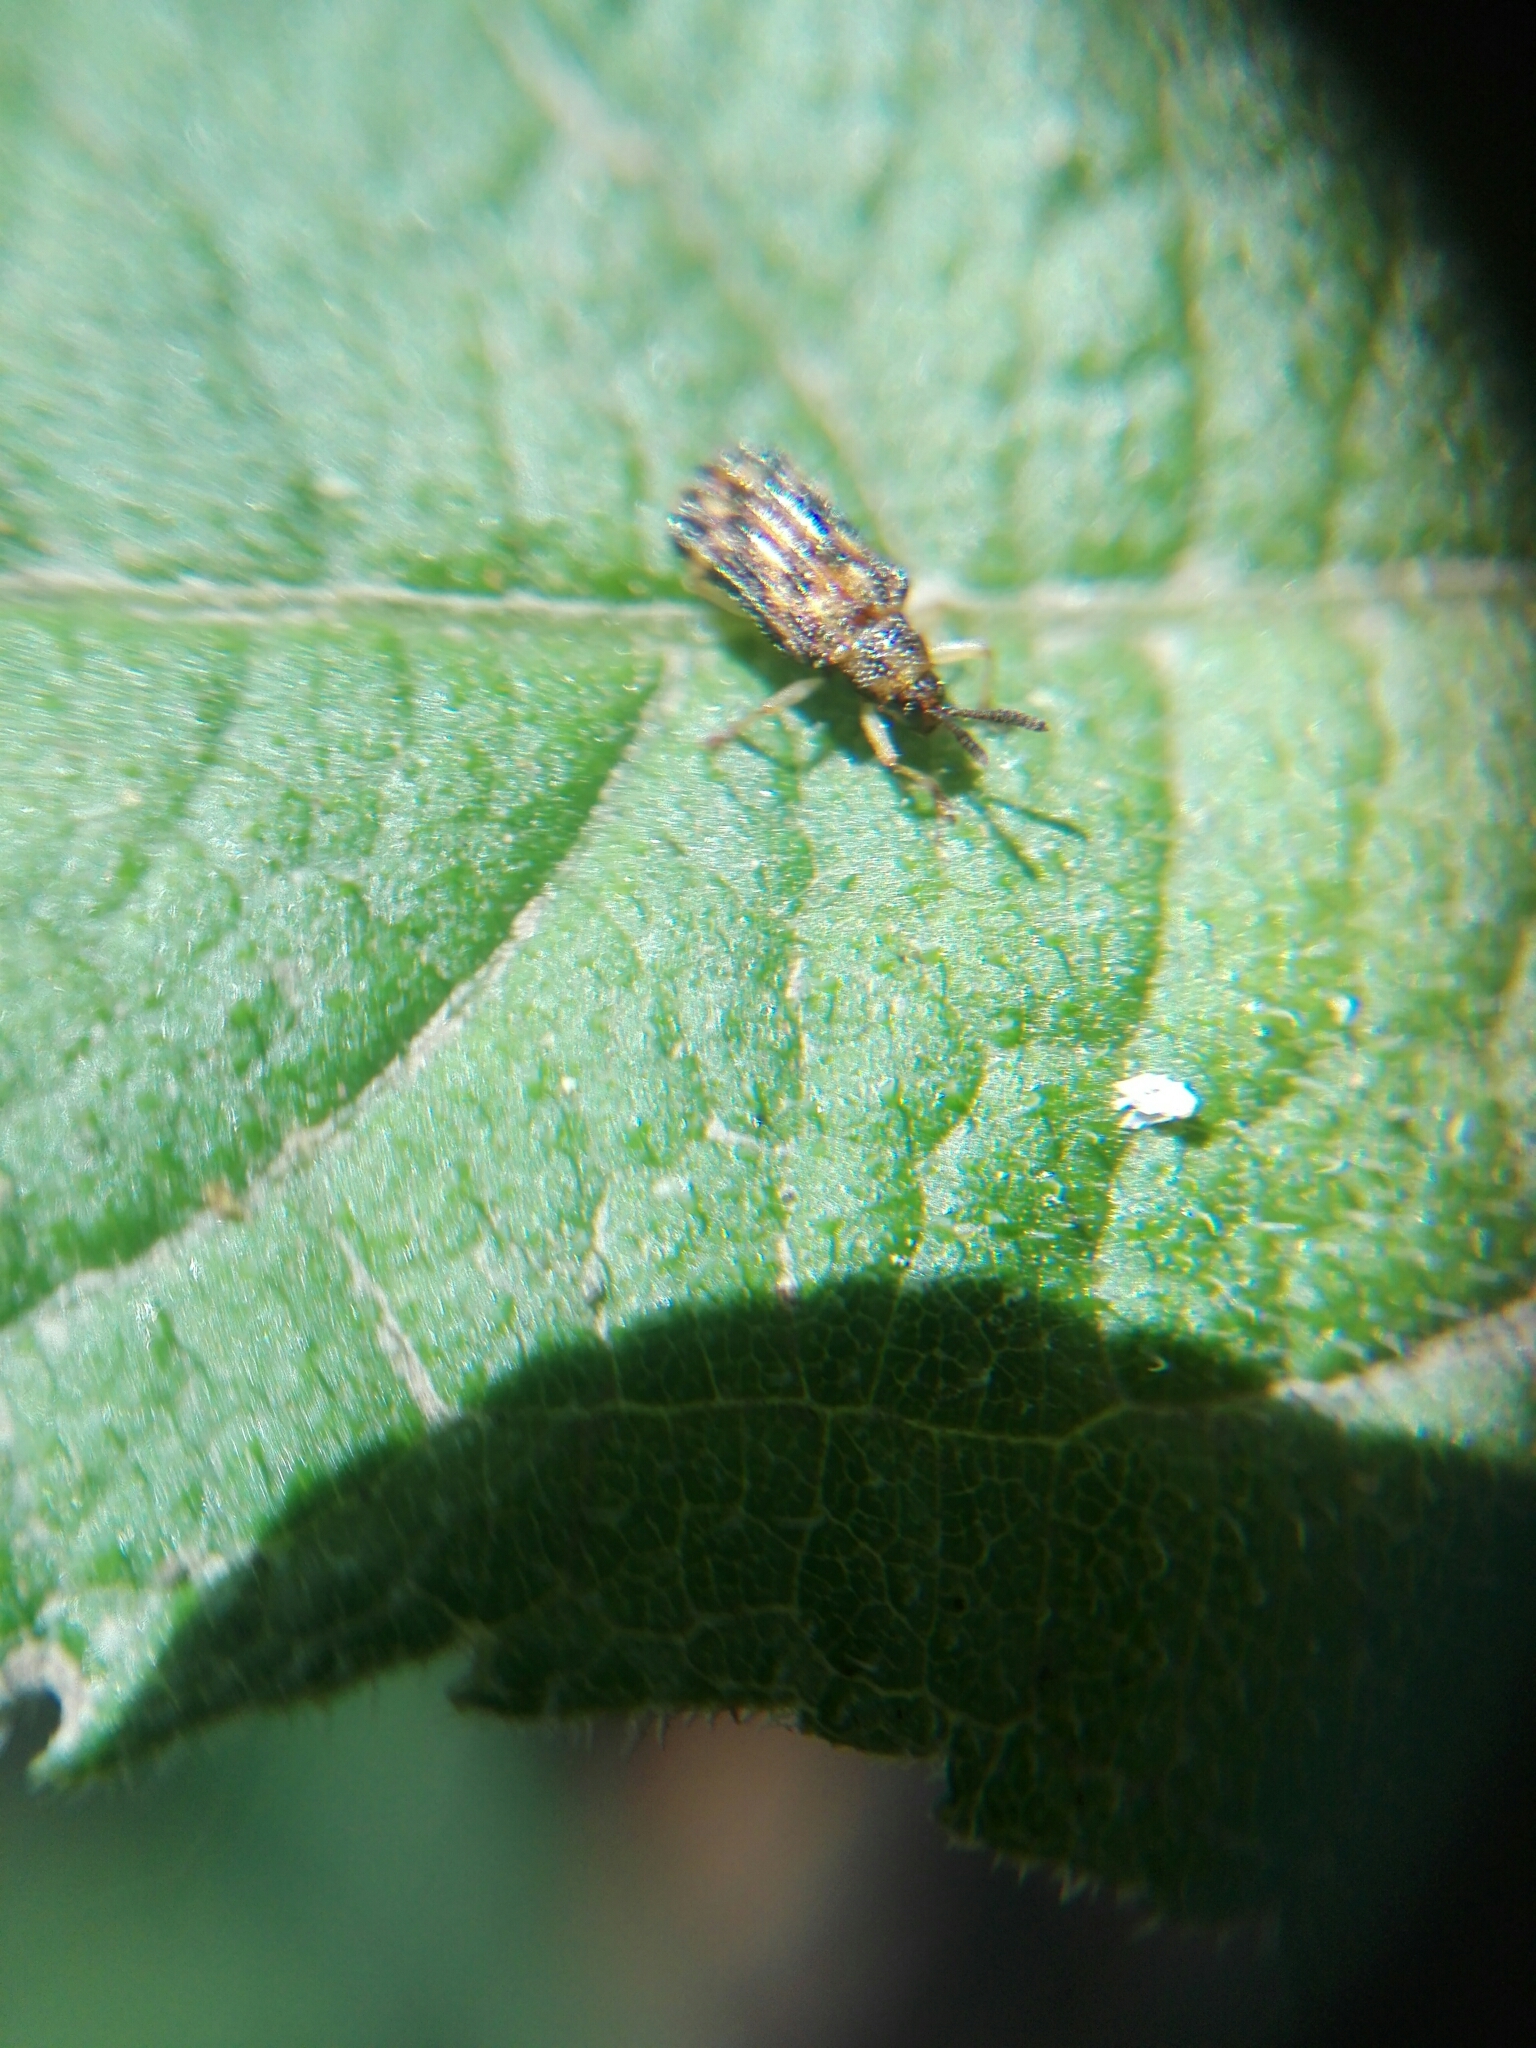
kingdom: Animalia
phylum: Arthropoda
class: Insecta
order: Coleoptera
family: Chrysomelidae
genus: Sumitrosis
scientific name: Sumitrosis inaequalis
